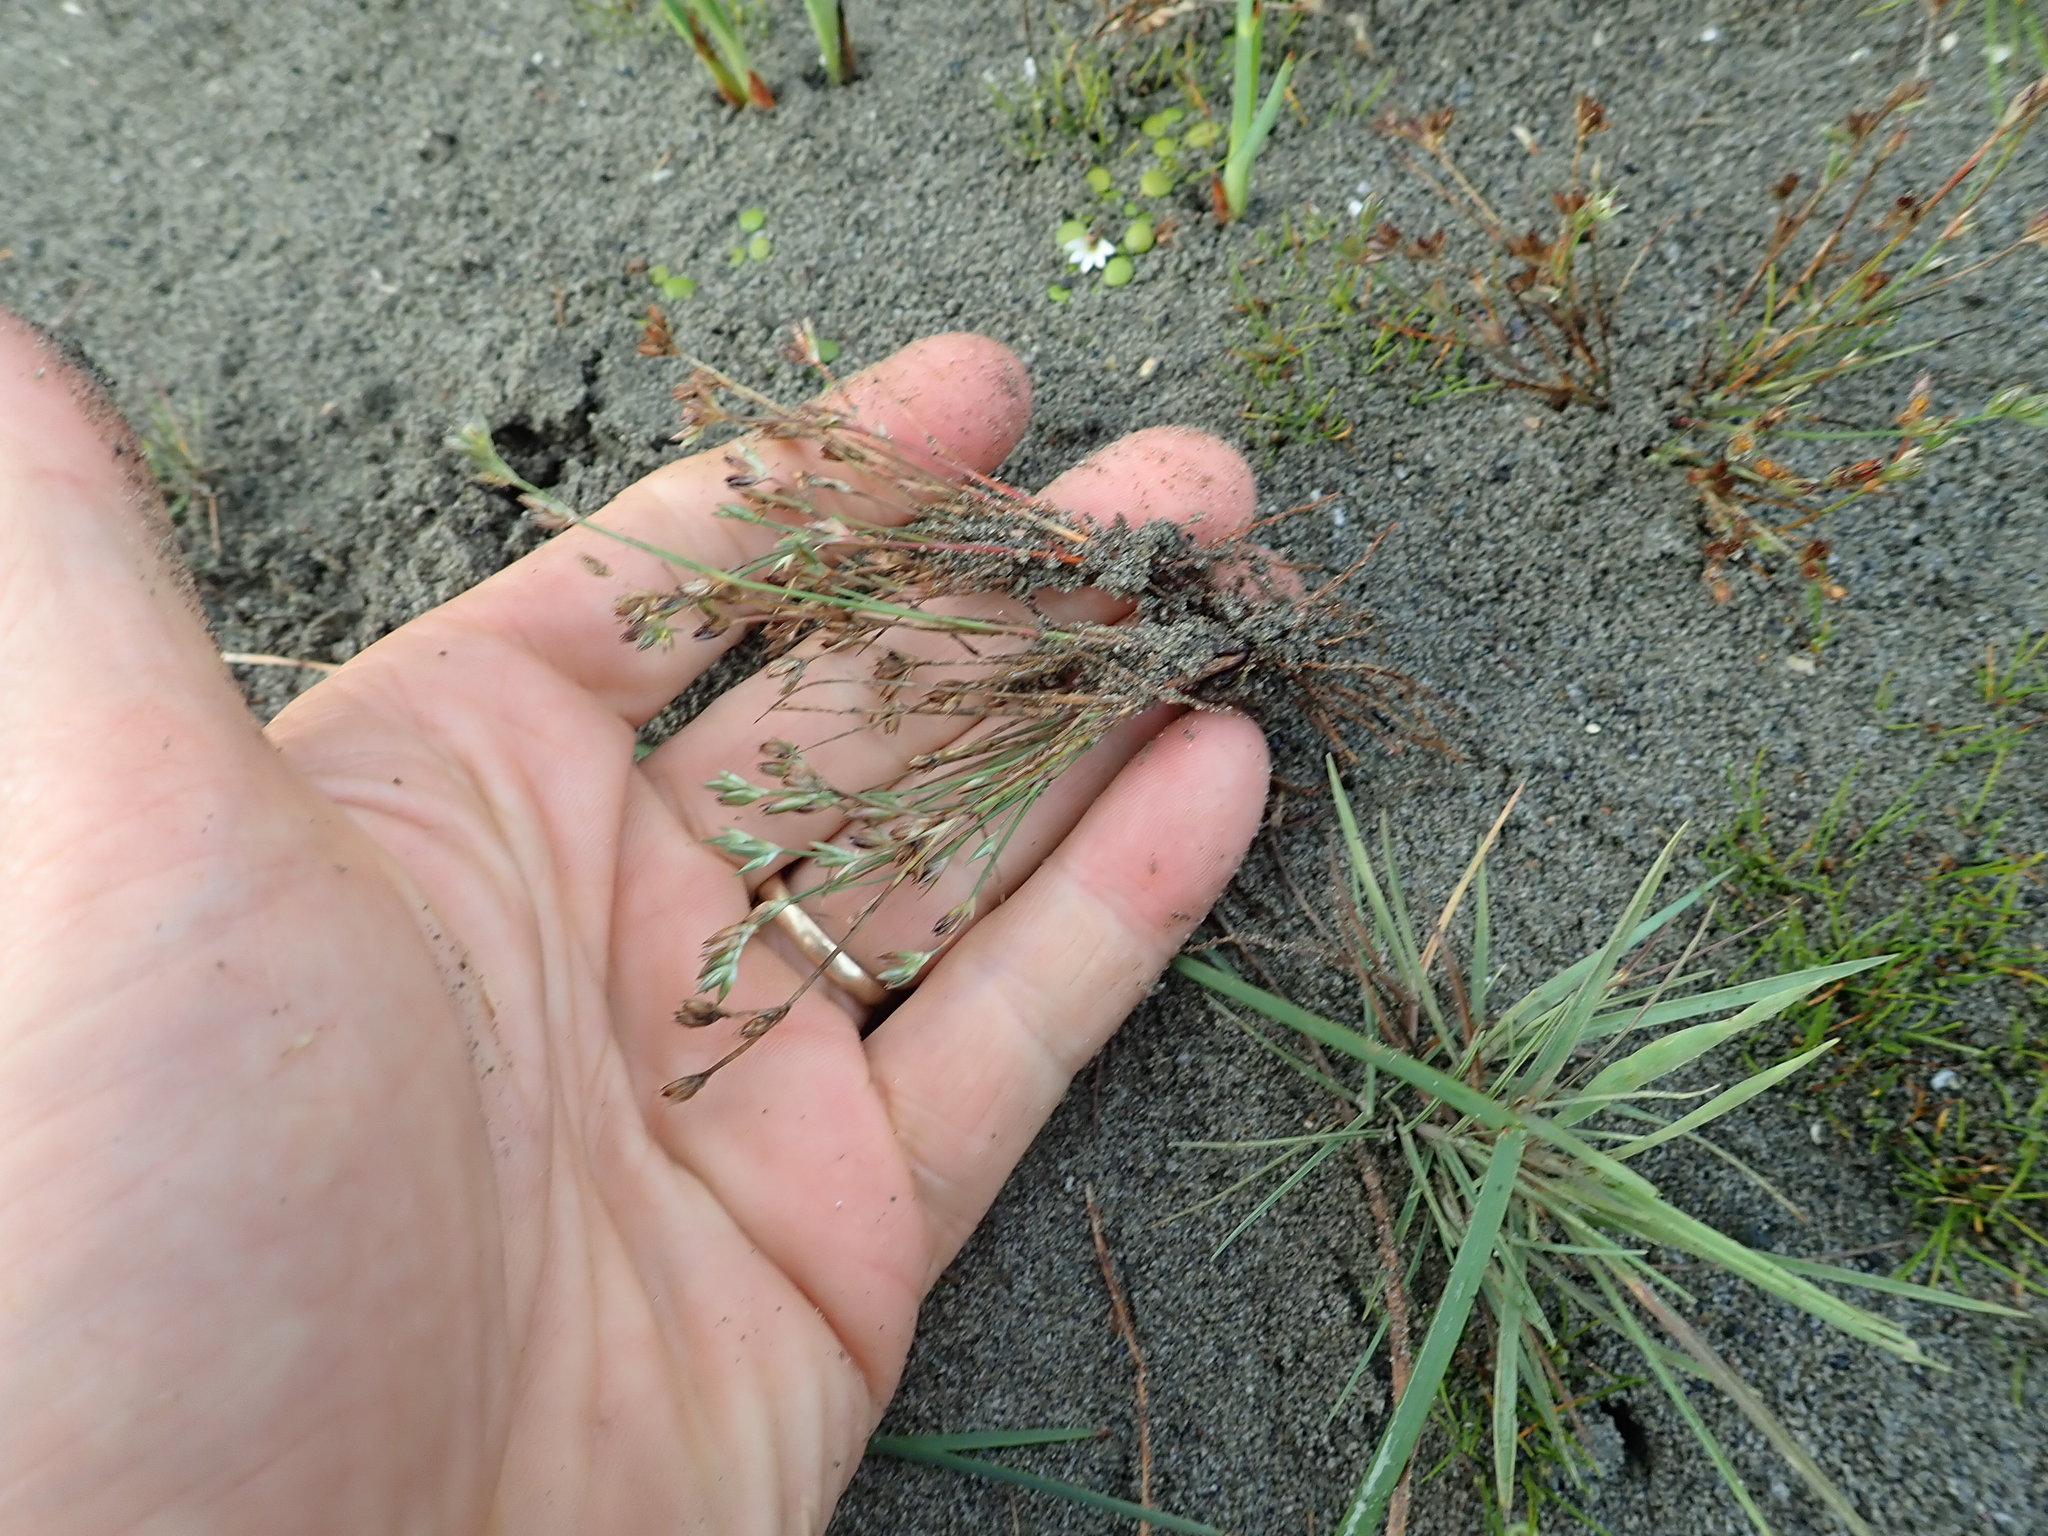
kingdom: Plantae
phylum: Tracheophyta
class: Liliopsida
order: Poales
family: Juncaceae
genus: Juncus
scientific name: Juncus bufonius
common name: Toad rush
